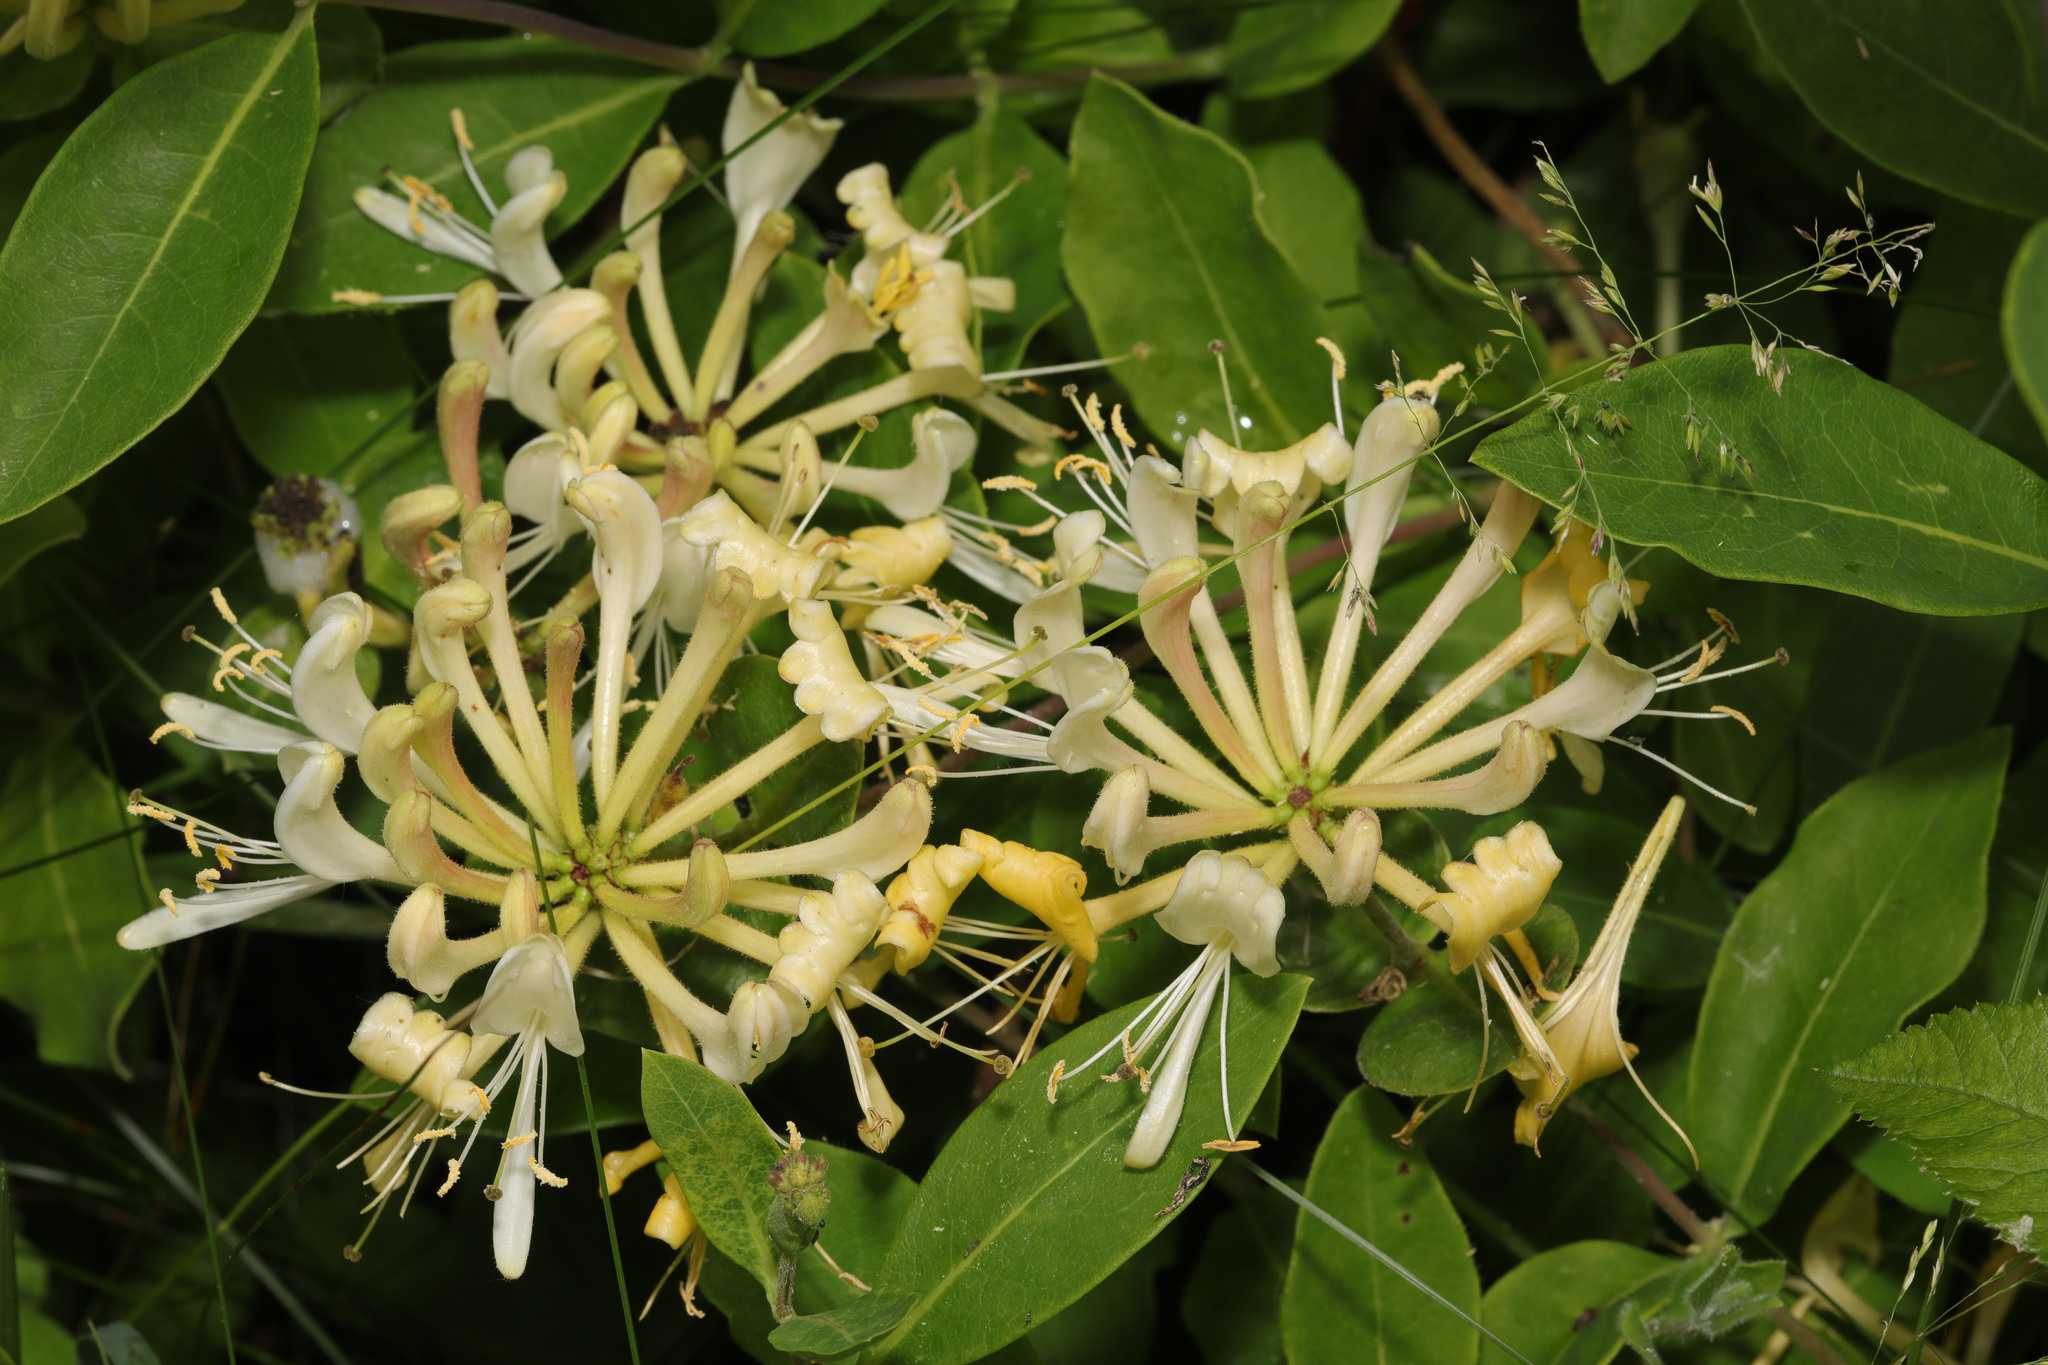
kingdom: Plantae
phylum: Tracheophyta
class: Magnoliopsida
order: Dipsacales
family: Caprifoliaceae
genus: Lonicera
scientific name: Lonicera periclymenum
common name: European honeysuckle
